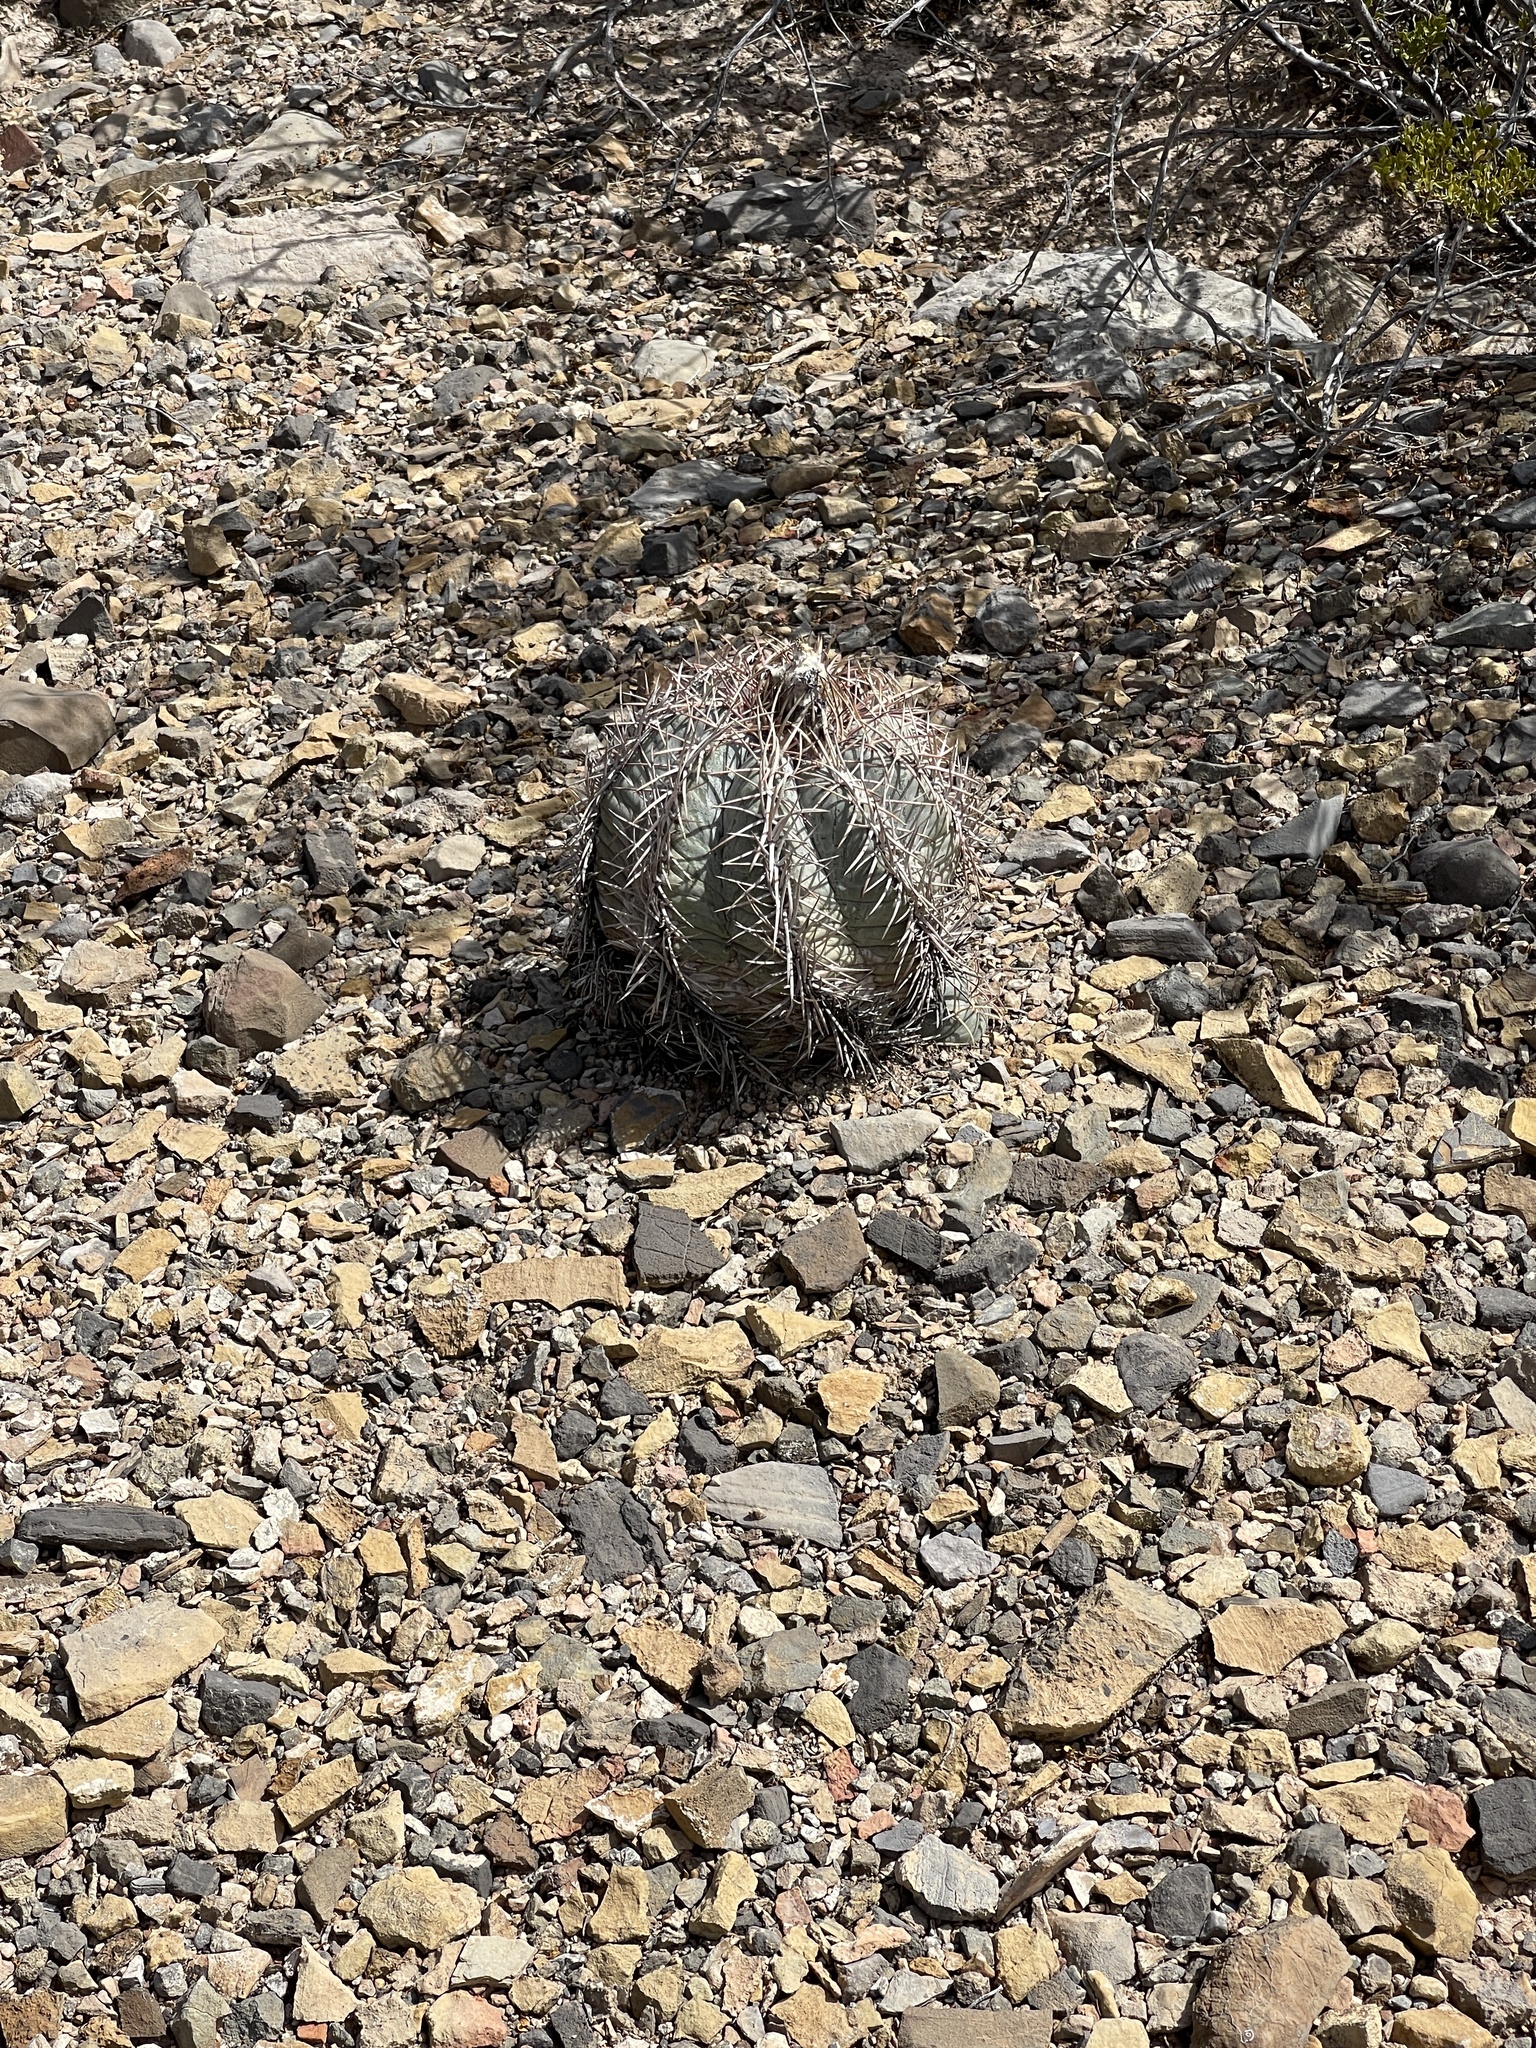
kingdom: Plantae
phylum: Tracheophyta
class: Magnoliopsida
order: Caryophyllales
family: Cactaceae
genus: Echinocactus
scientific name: Echinocactus horizonthalonius
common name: Devilshead
